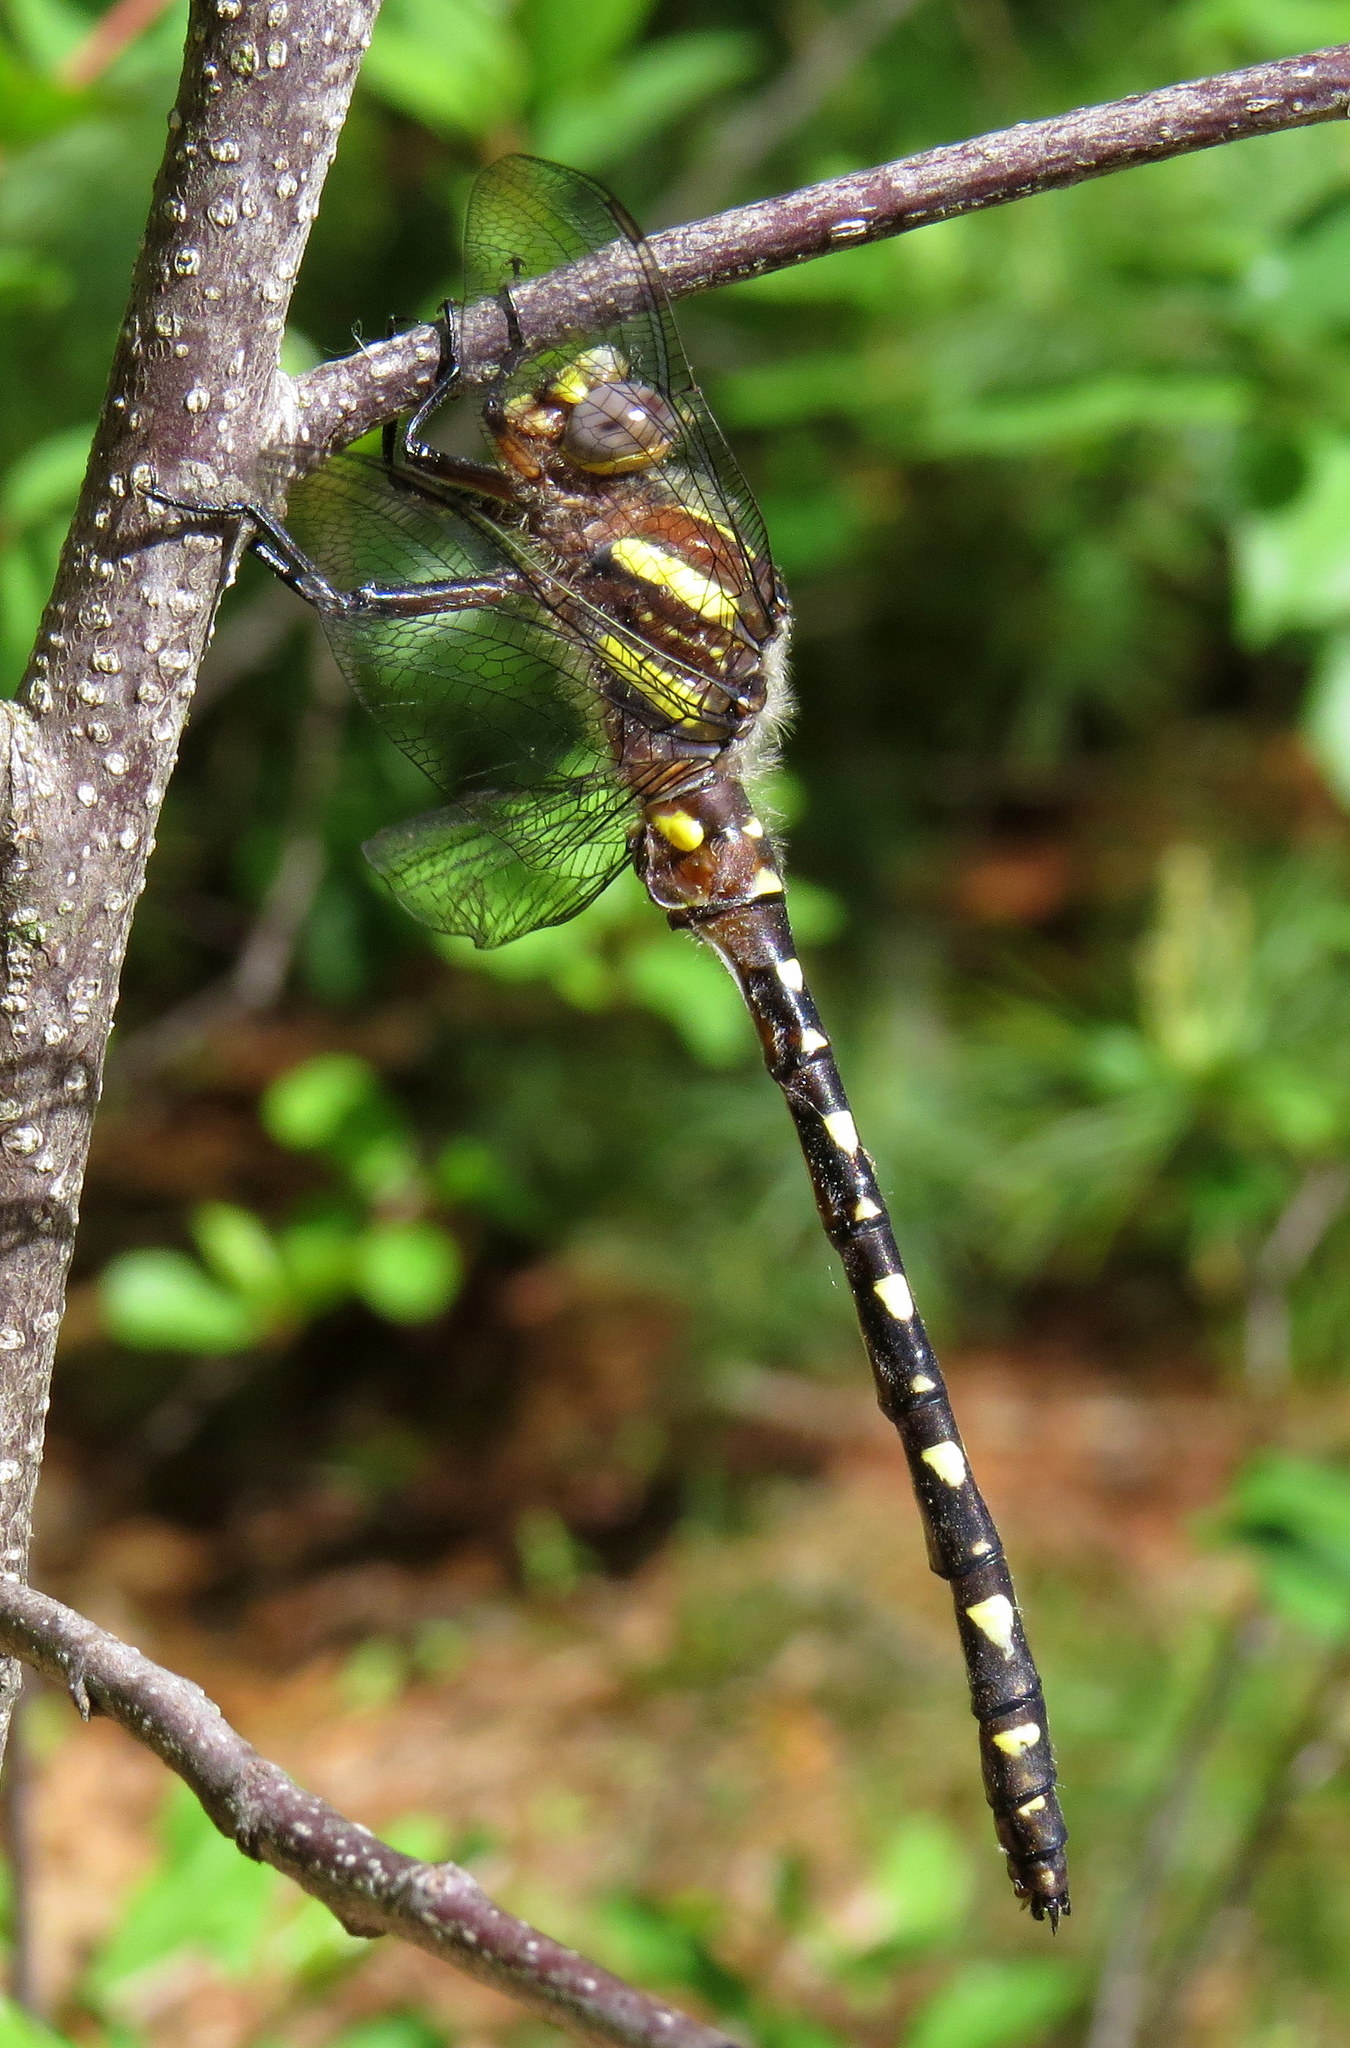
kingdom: Animalia
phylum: Arthropoda
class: Insecta
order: Odonata
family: Cordulegastridae
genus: Cordulegaster
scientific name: Cordulegaster maculata
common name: Twin-spotted spiketail
